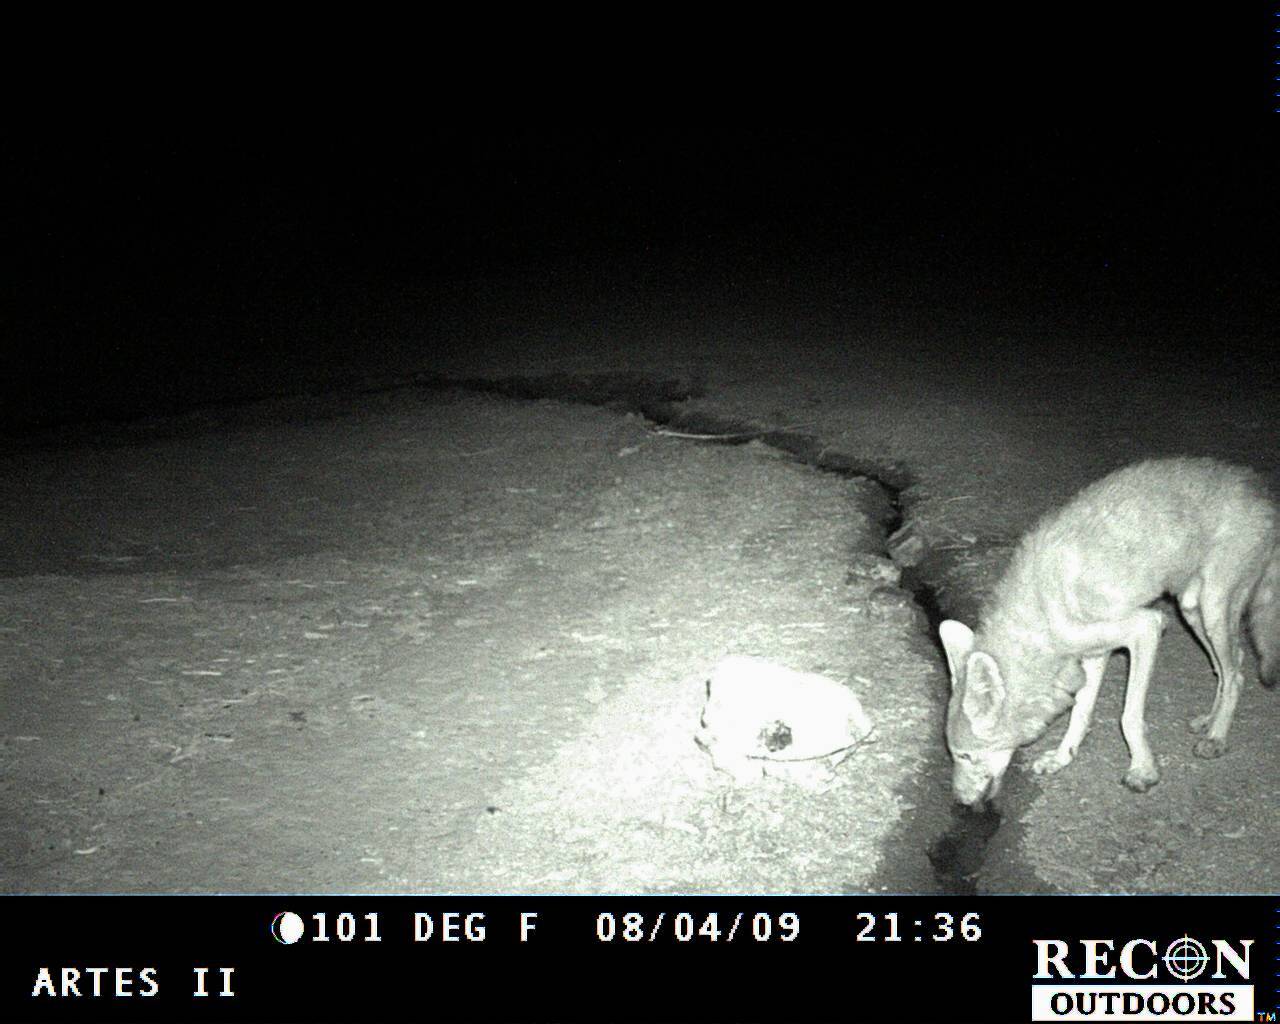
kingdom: Animalia
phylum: Chordata
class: Mammalia
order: Carnivora
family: Canidae
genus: Canis
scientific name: Canis latrans
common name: Coyote
